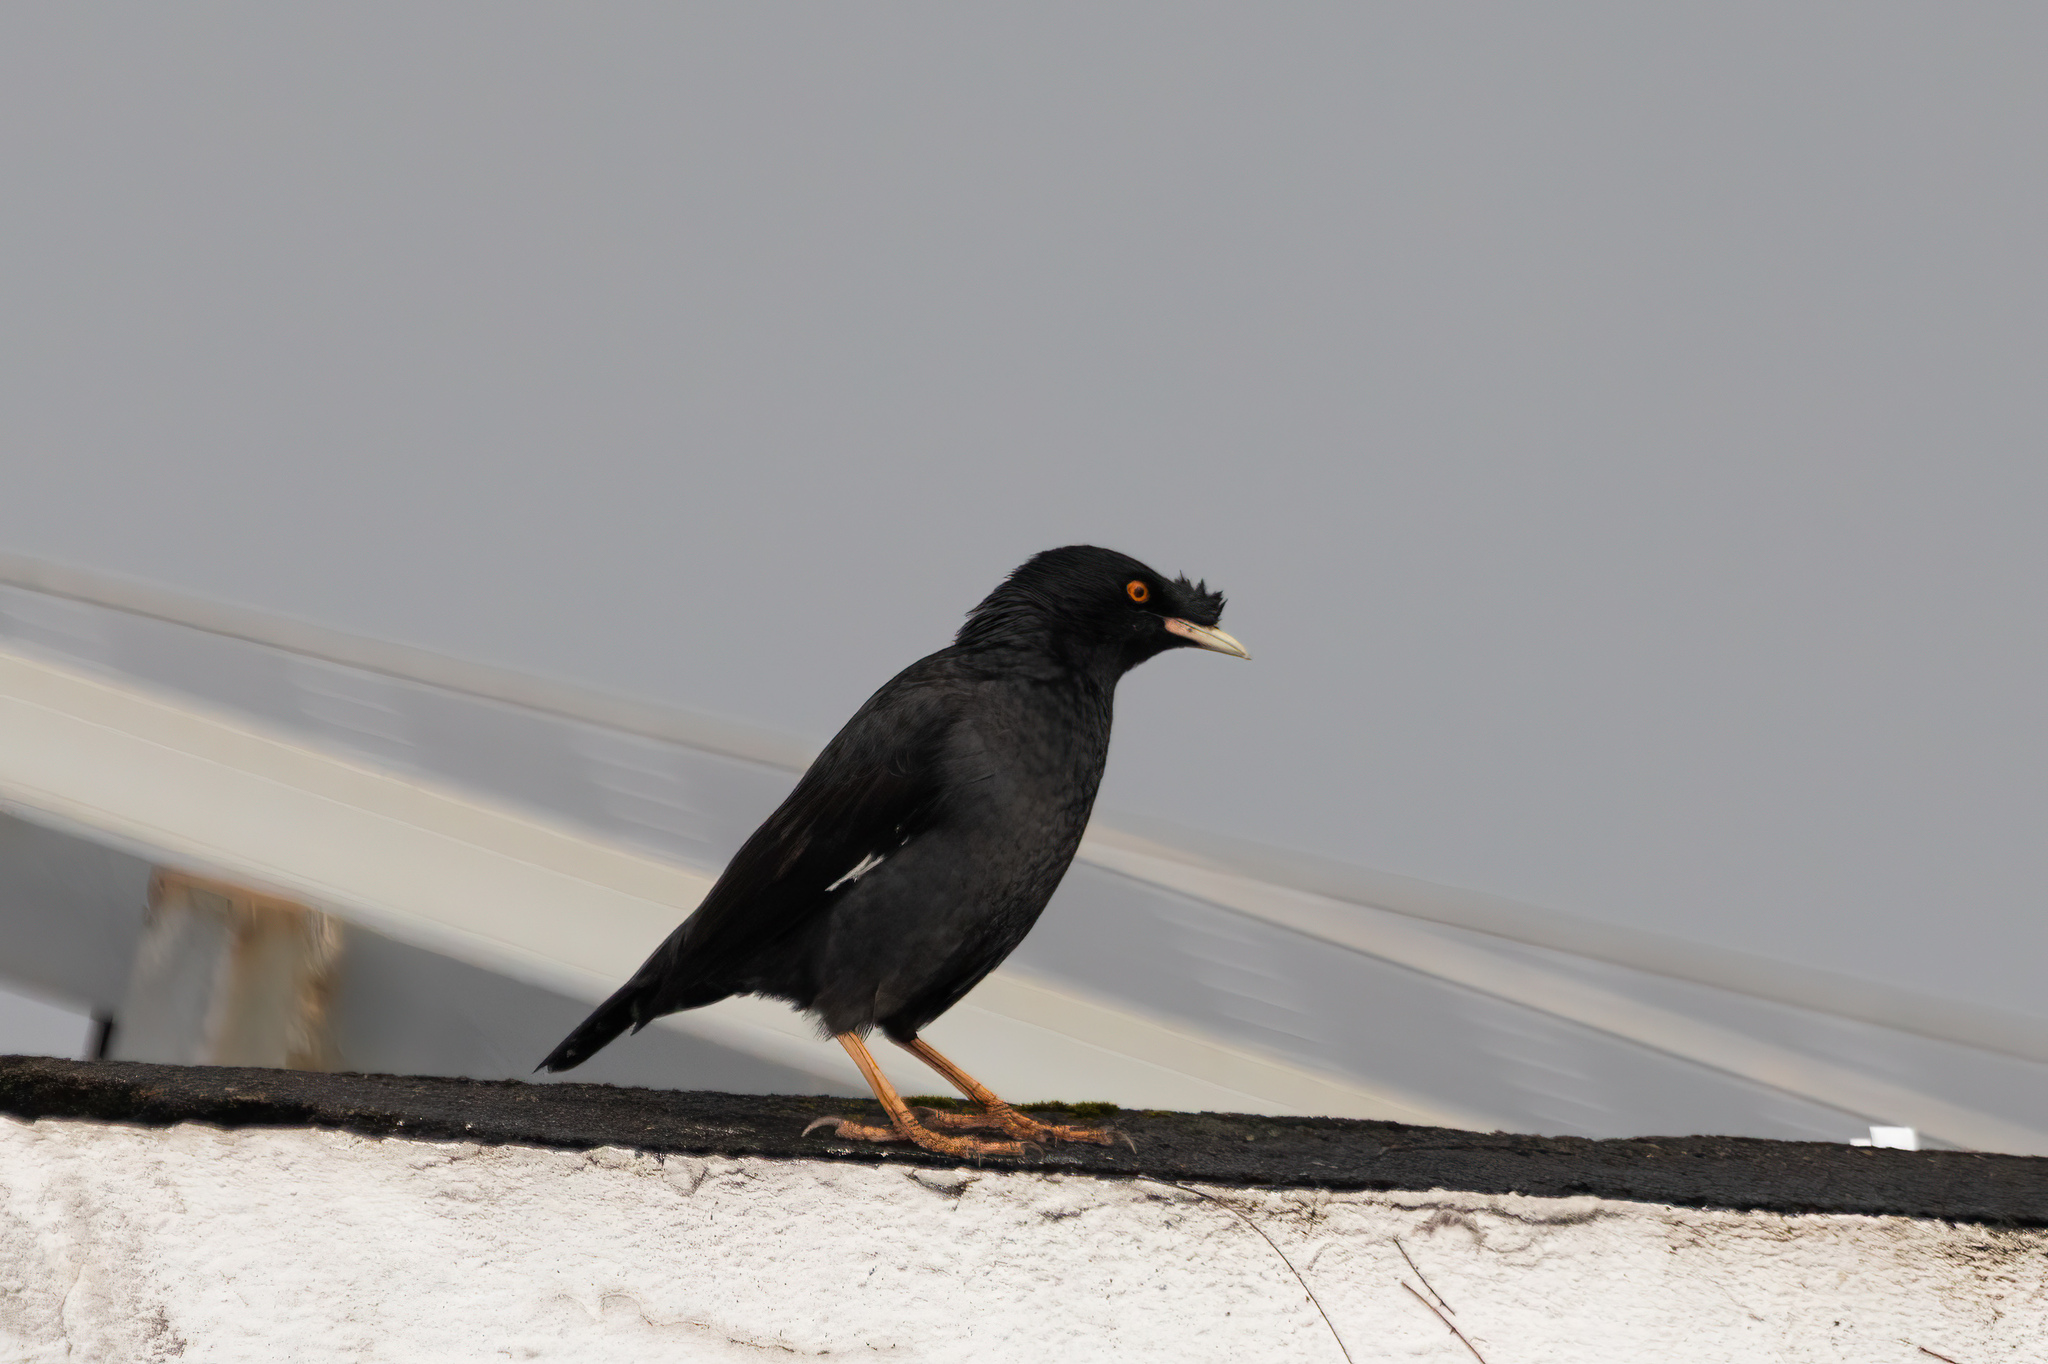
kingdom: Animalia
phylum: Chordata
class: Aves
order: Passeriformes
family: Sturnidae
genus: Acridotheres
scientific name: Acridotheres cristatellus
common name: Crested myna
